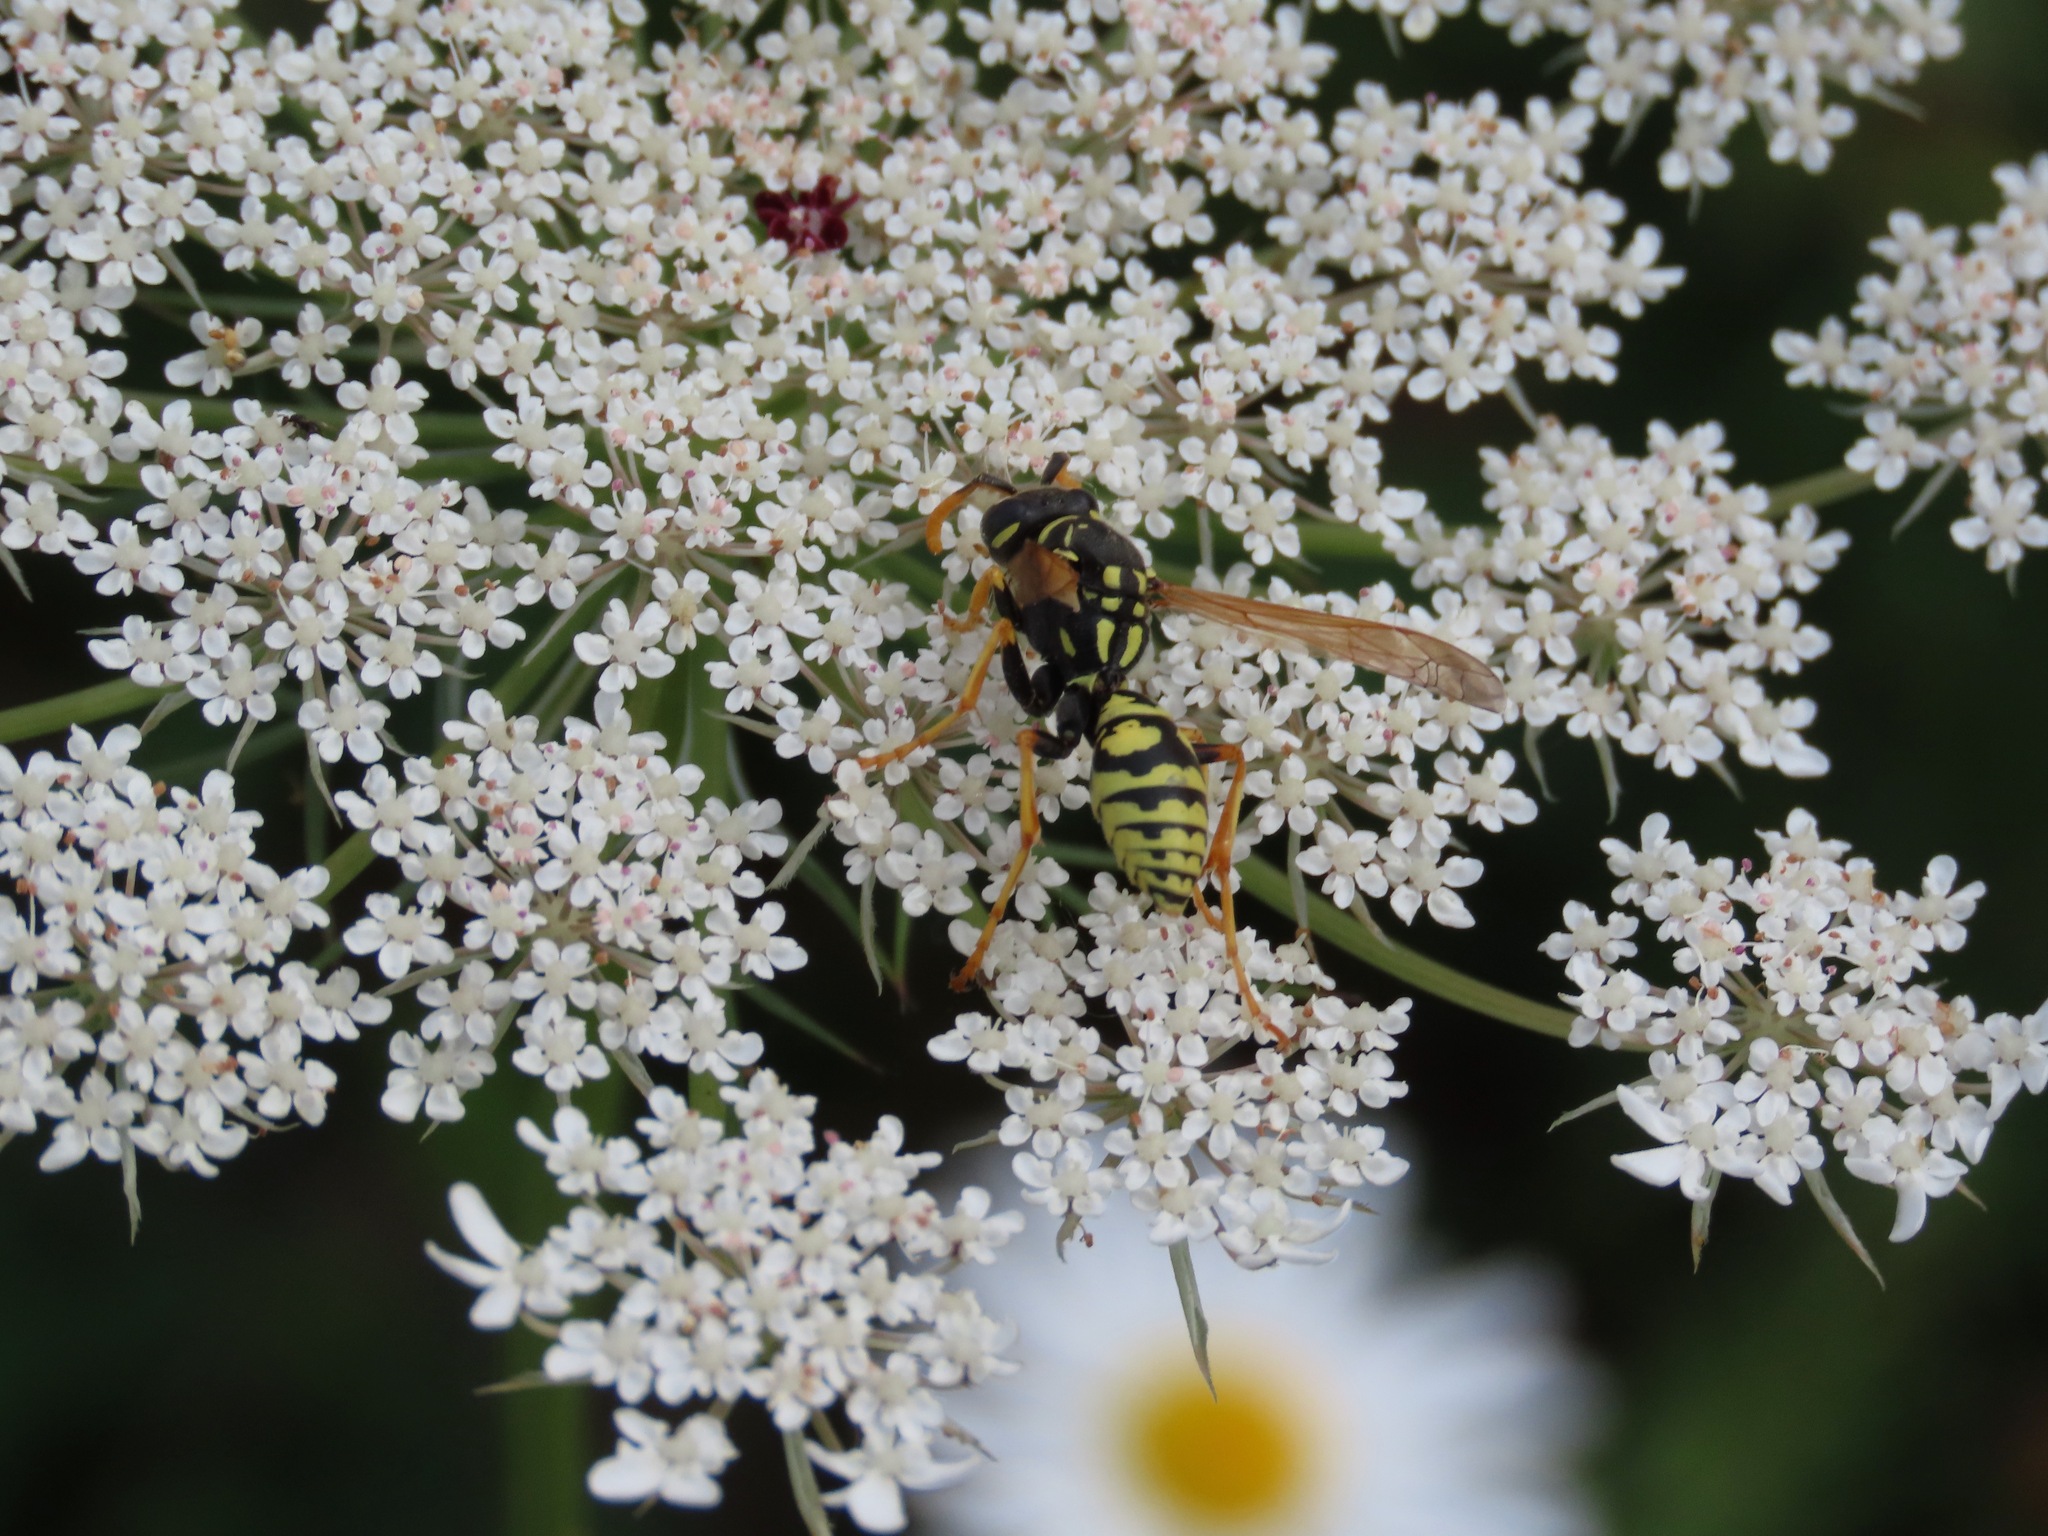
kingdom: Animalia
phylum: Arthropoda
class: Insecta
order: Hymenoptera
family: Eumenidae
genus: Polistes
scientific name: Polistes dominula
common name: Paper wasp
